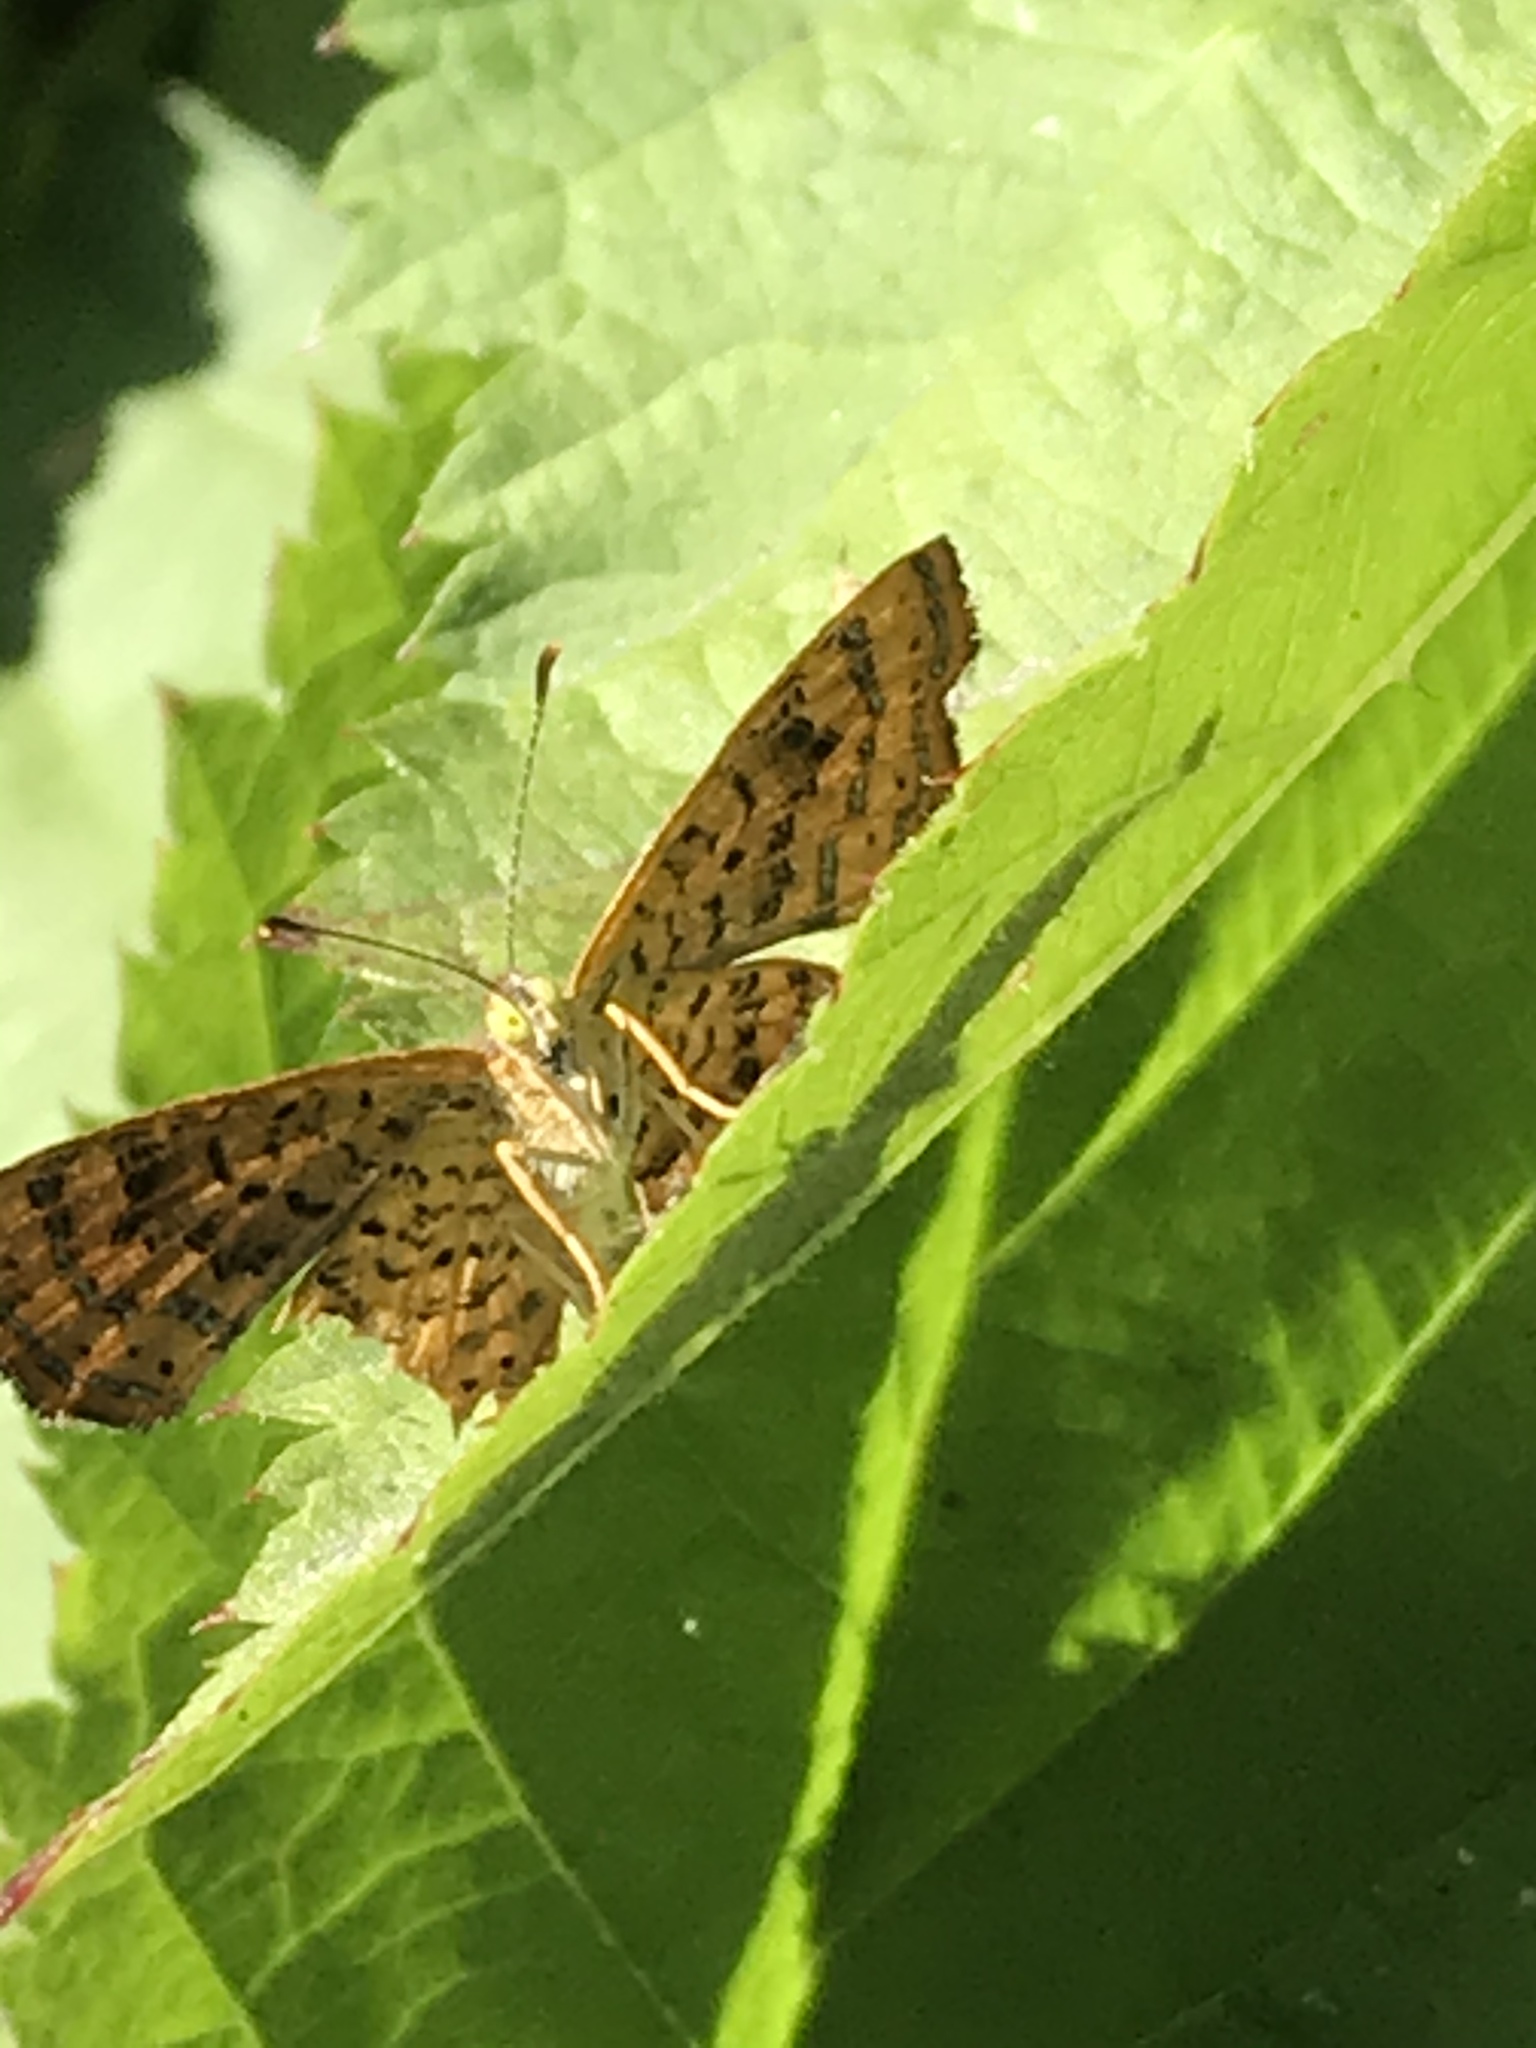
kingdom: Animalia
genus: Calephelis
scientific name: Calephelis nemesis
